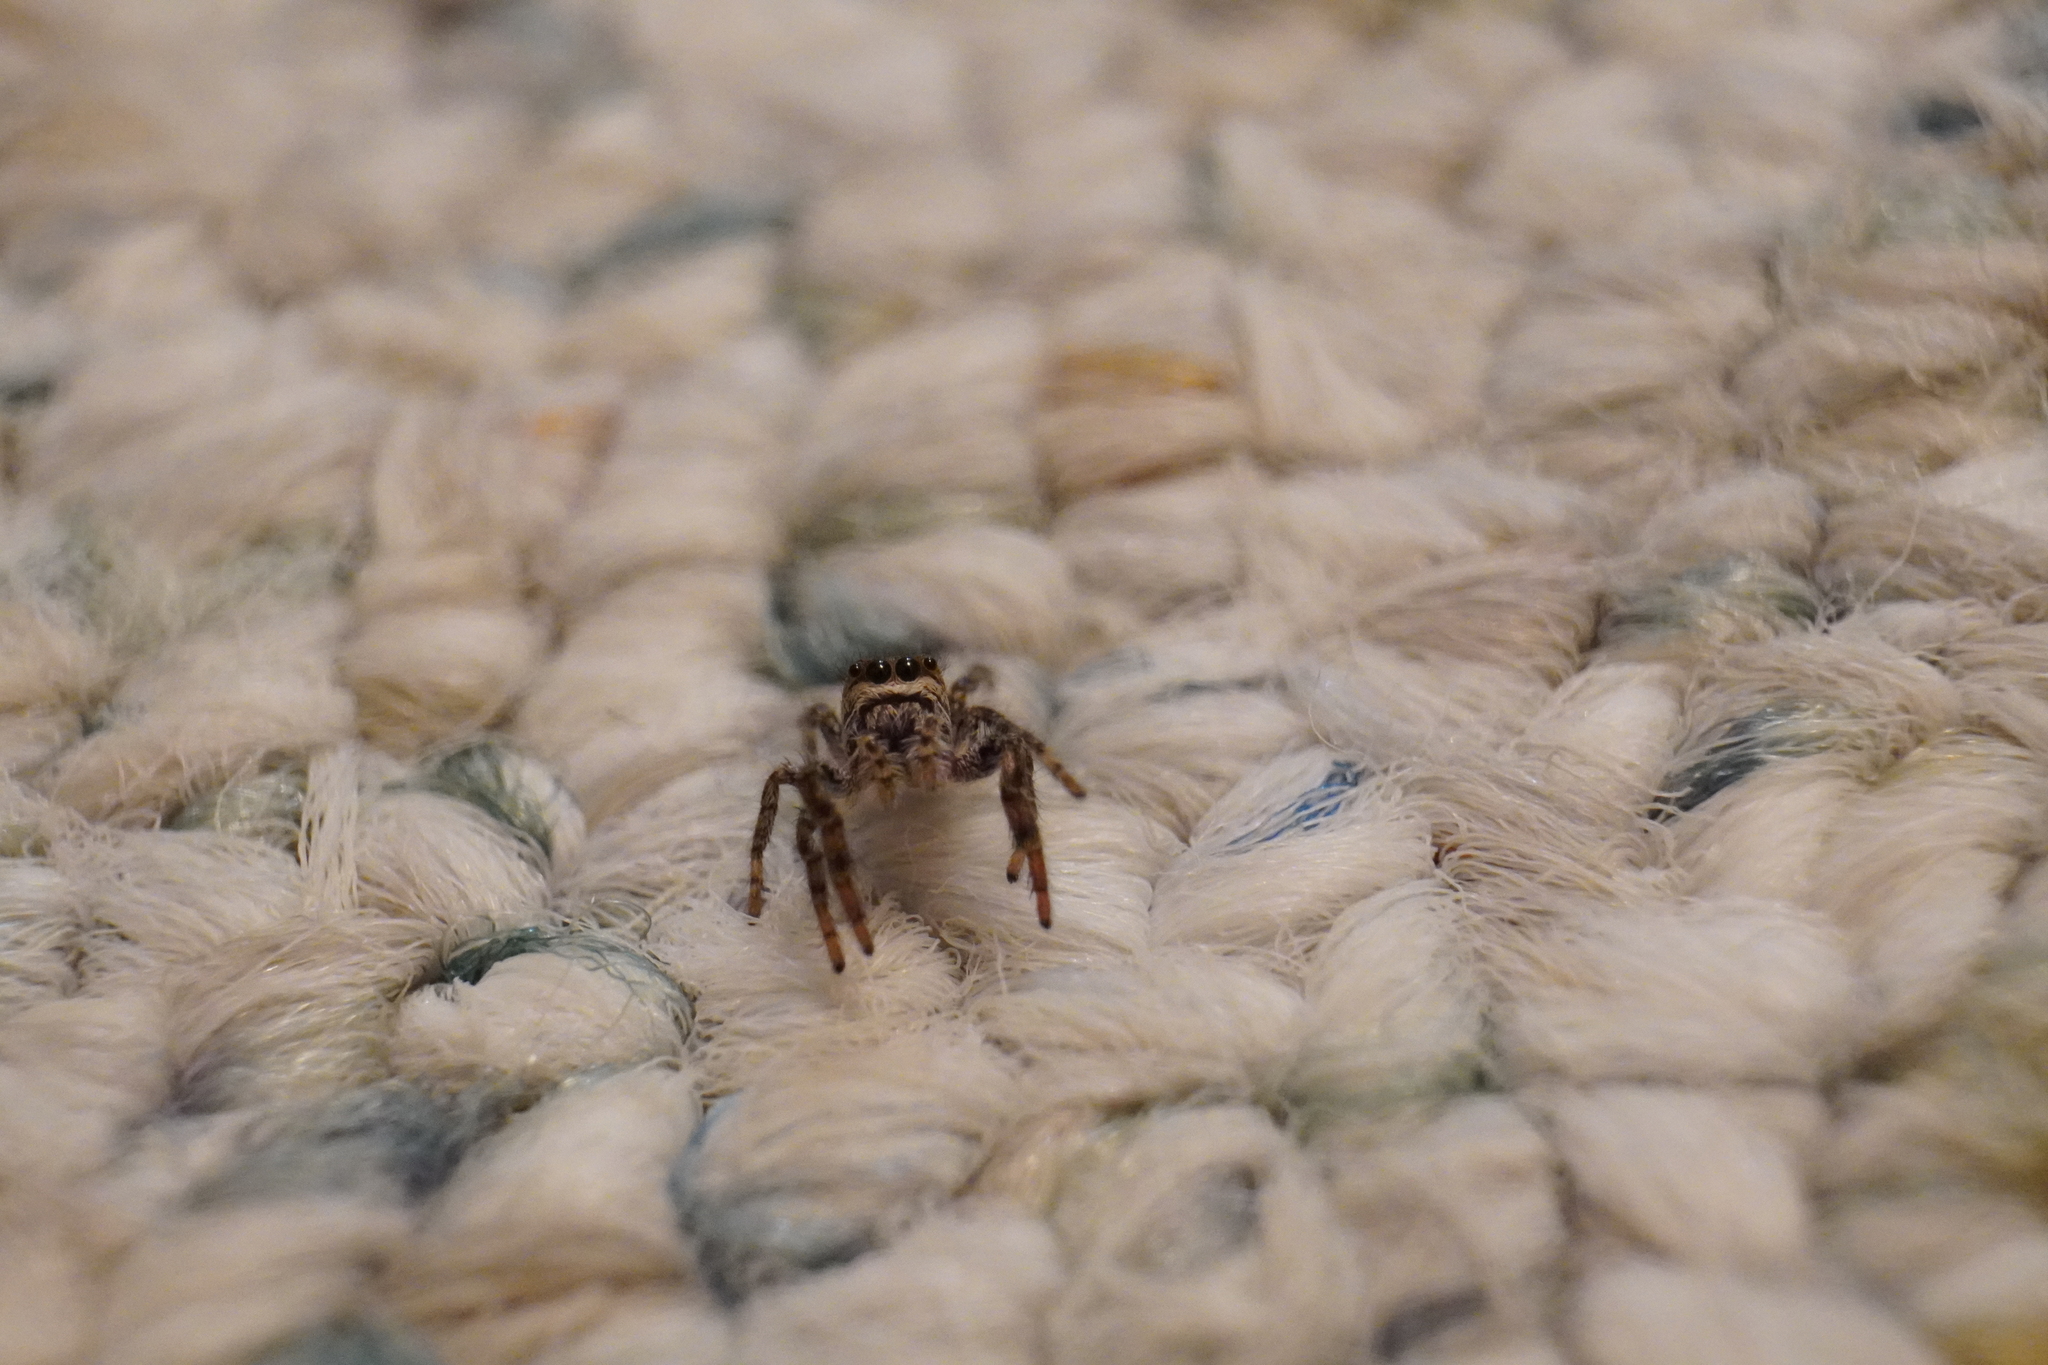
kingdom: Animalia
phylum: Arthropoda
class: Arachnida
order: Araneae
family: Salticidae
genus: Eris
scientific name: Eris militaris
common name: Bronze jumper
